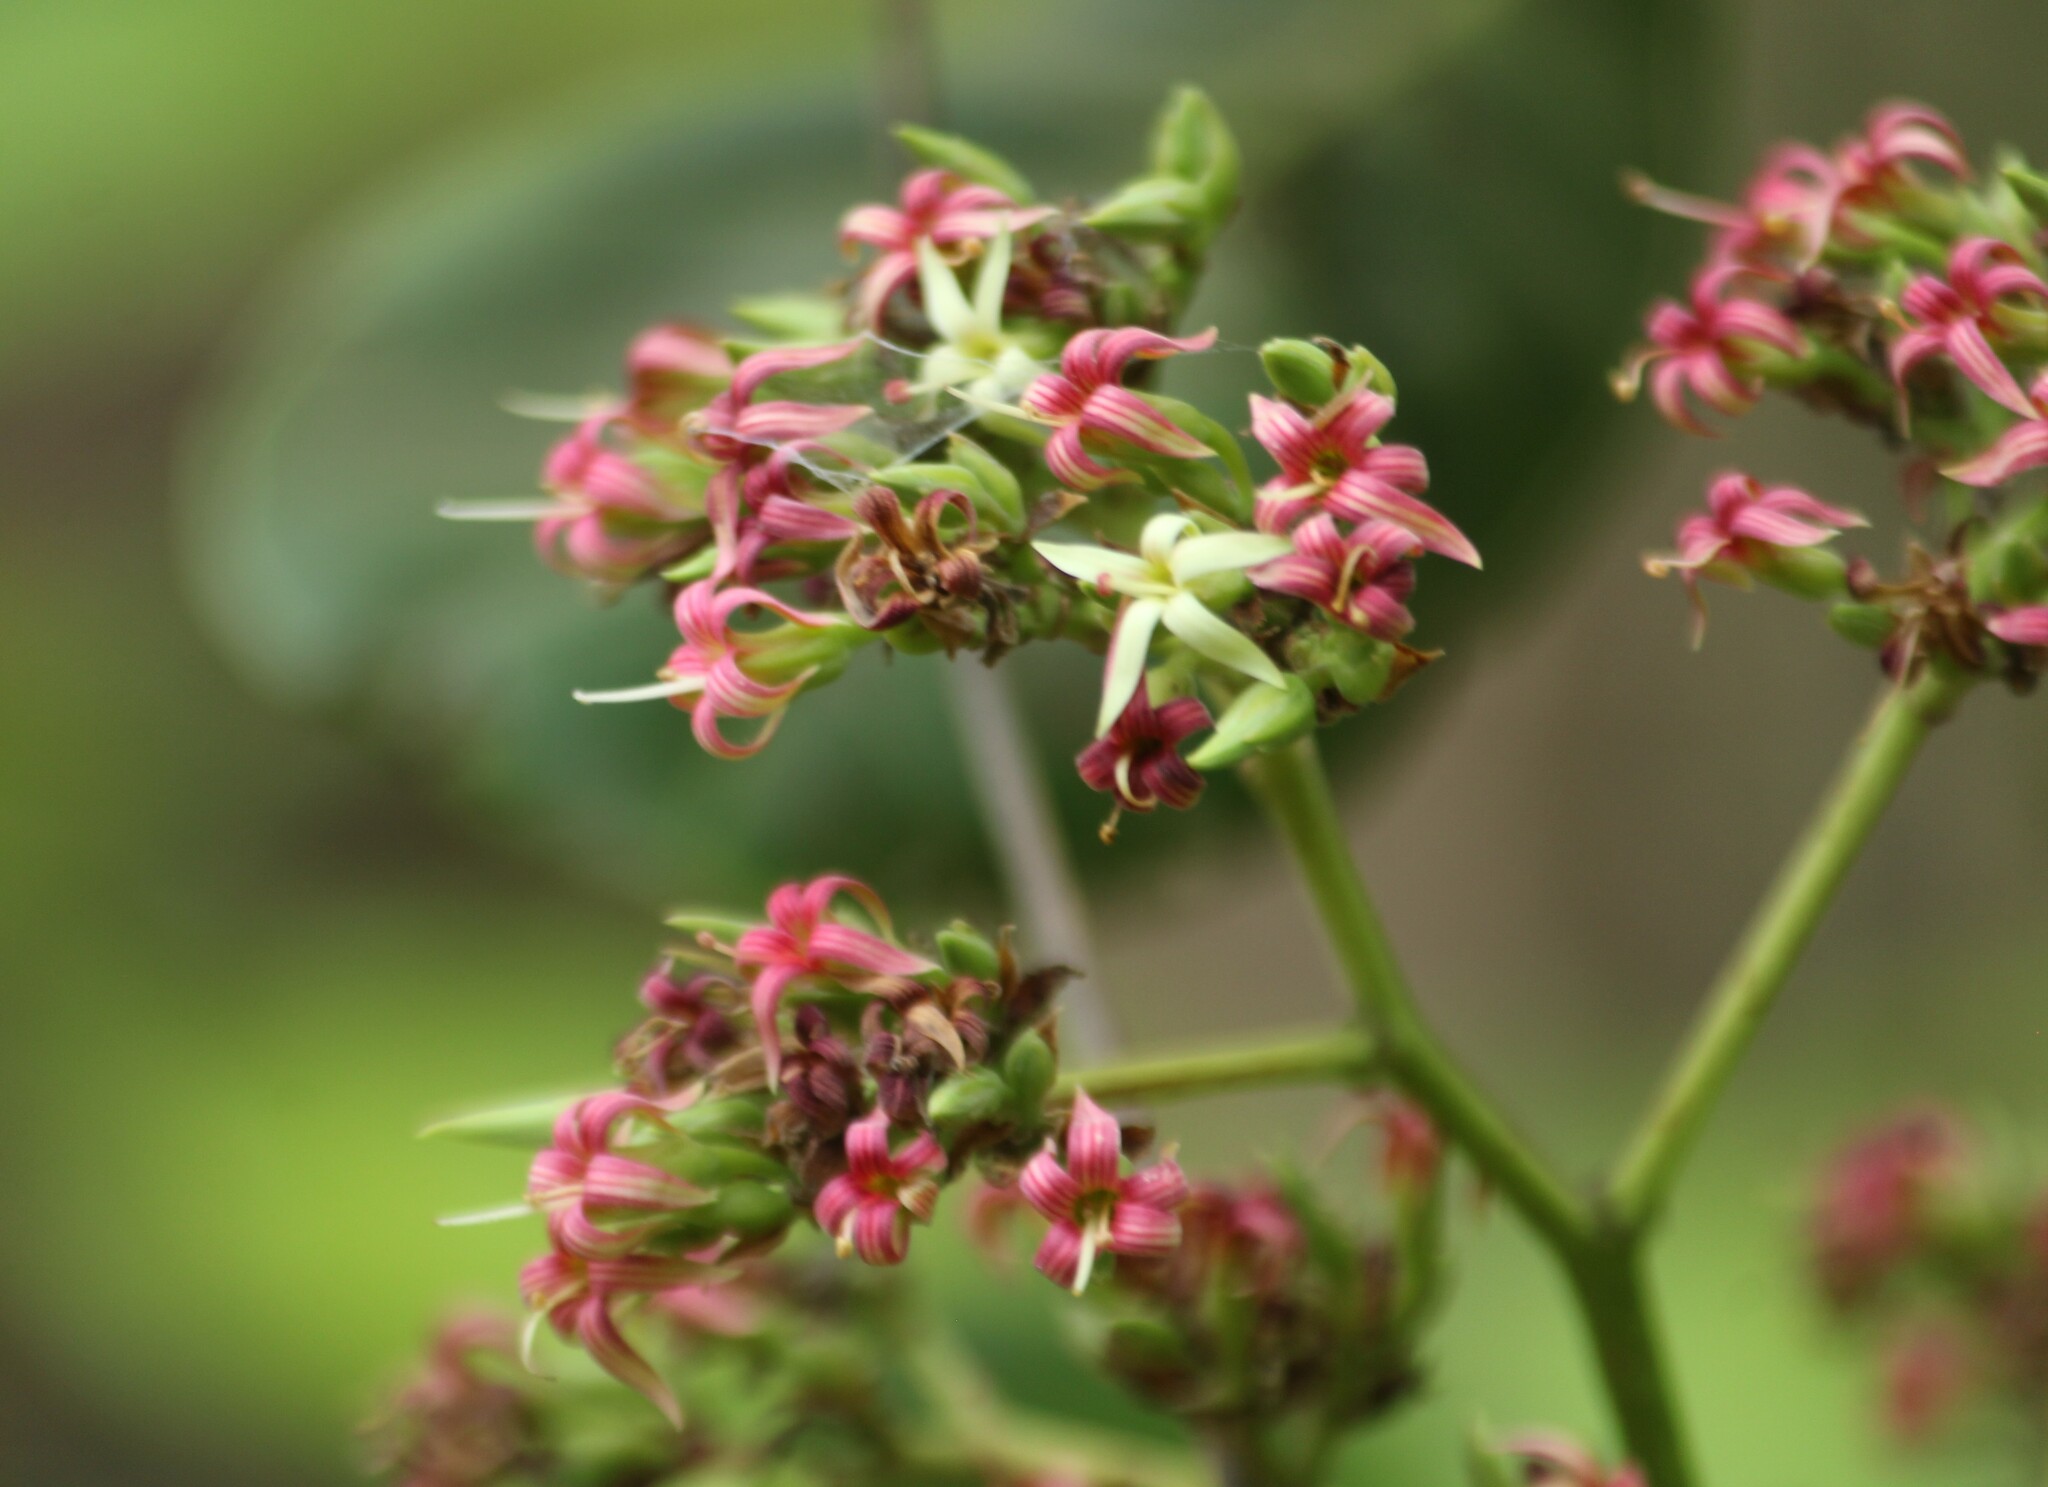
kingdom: Plantae
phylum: Tracheophyta
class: Magnoliopsida
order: Sapindales
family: Anacardiaceae
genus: Anacardium
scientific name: Anacardium occidentale
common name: Cashew
